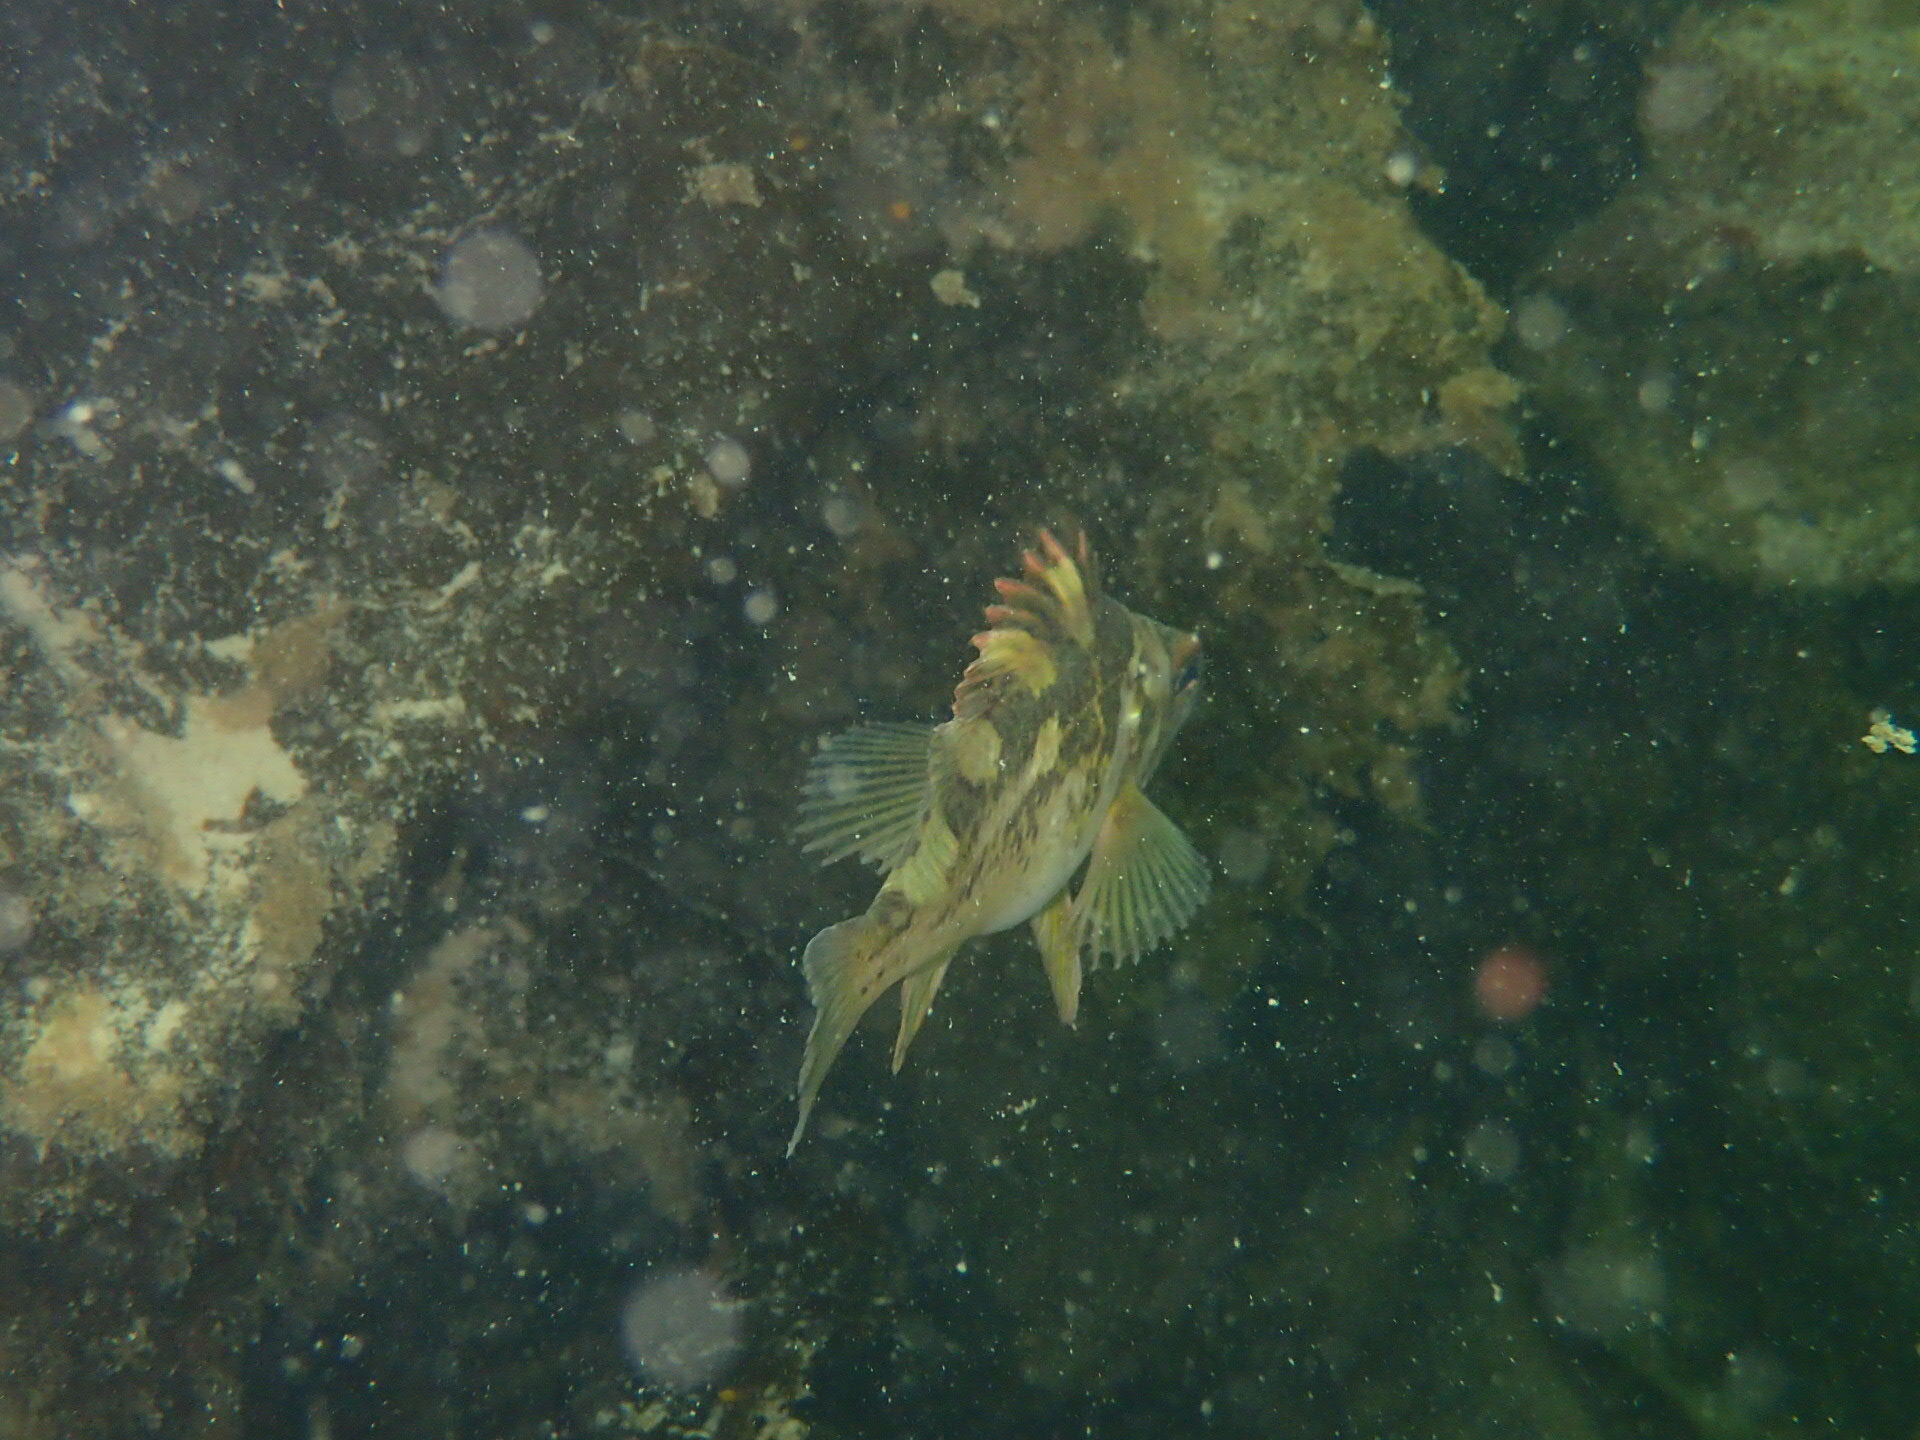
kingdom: Animalia
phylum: Chordata
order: Scorpaeniformes
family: Sebastidae
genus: Sebastes
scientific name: Sebastes caurinus
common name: Copper rockfish
